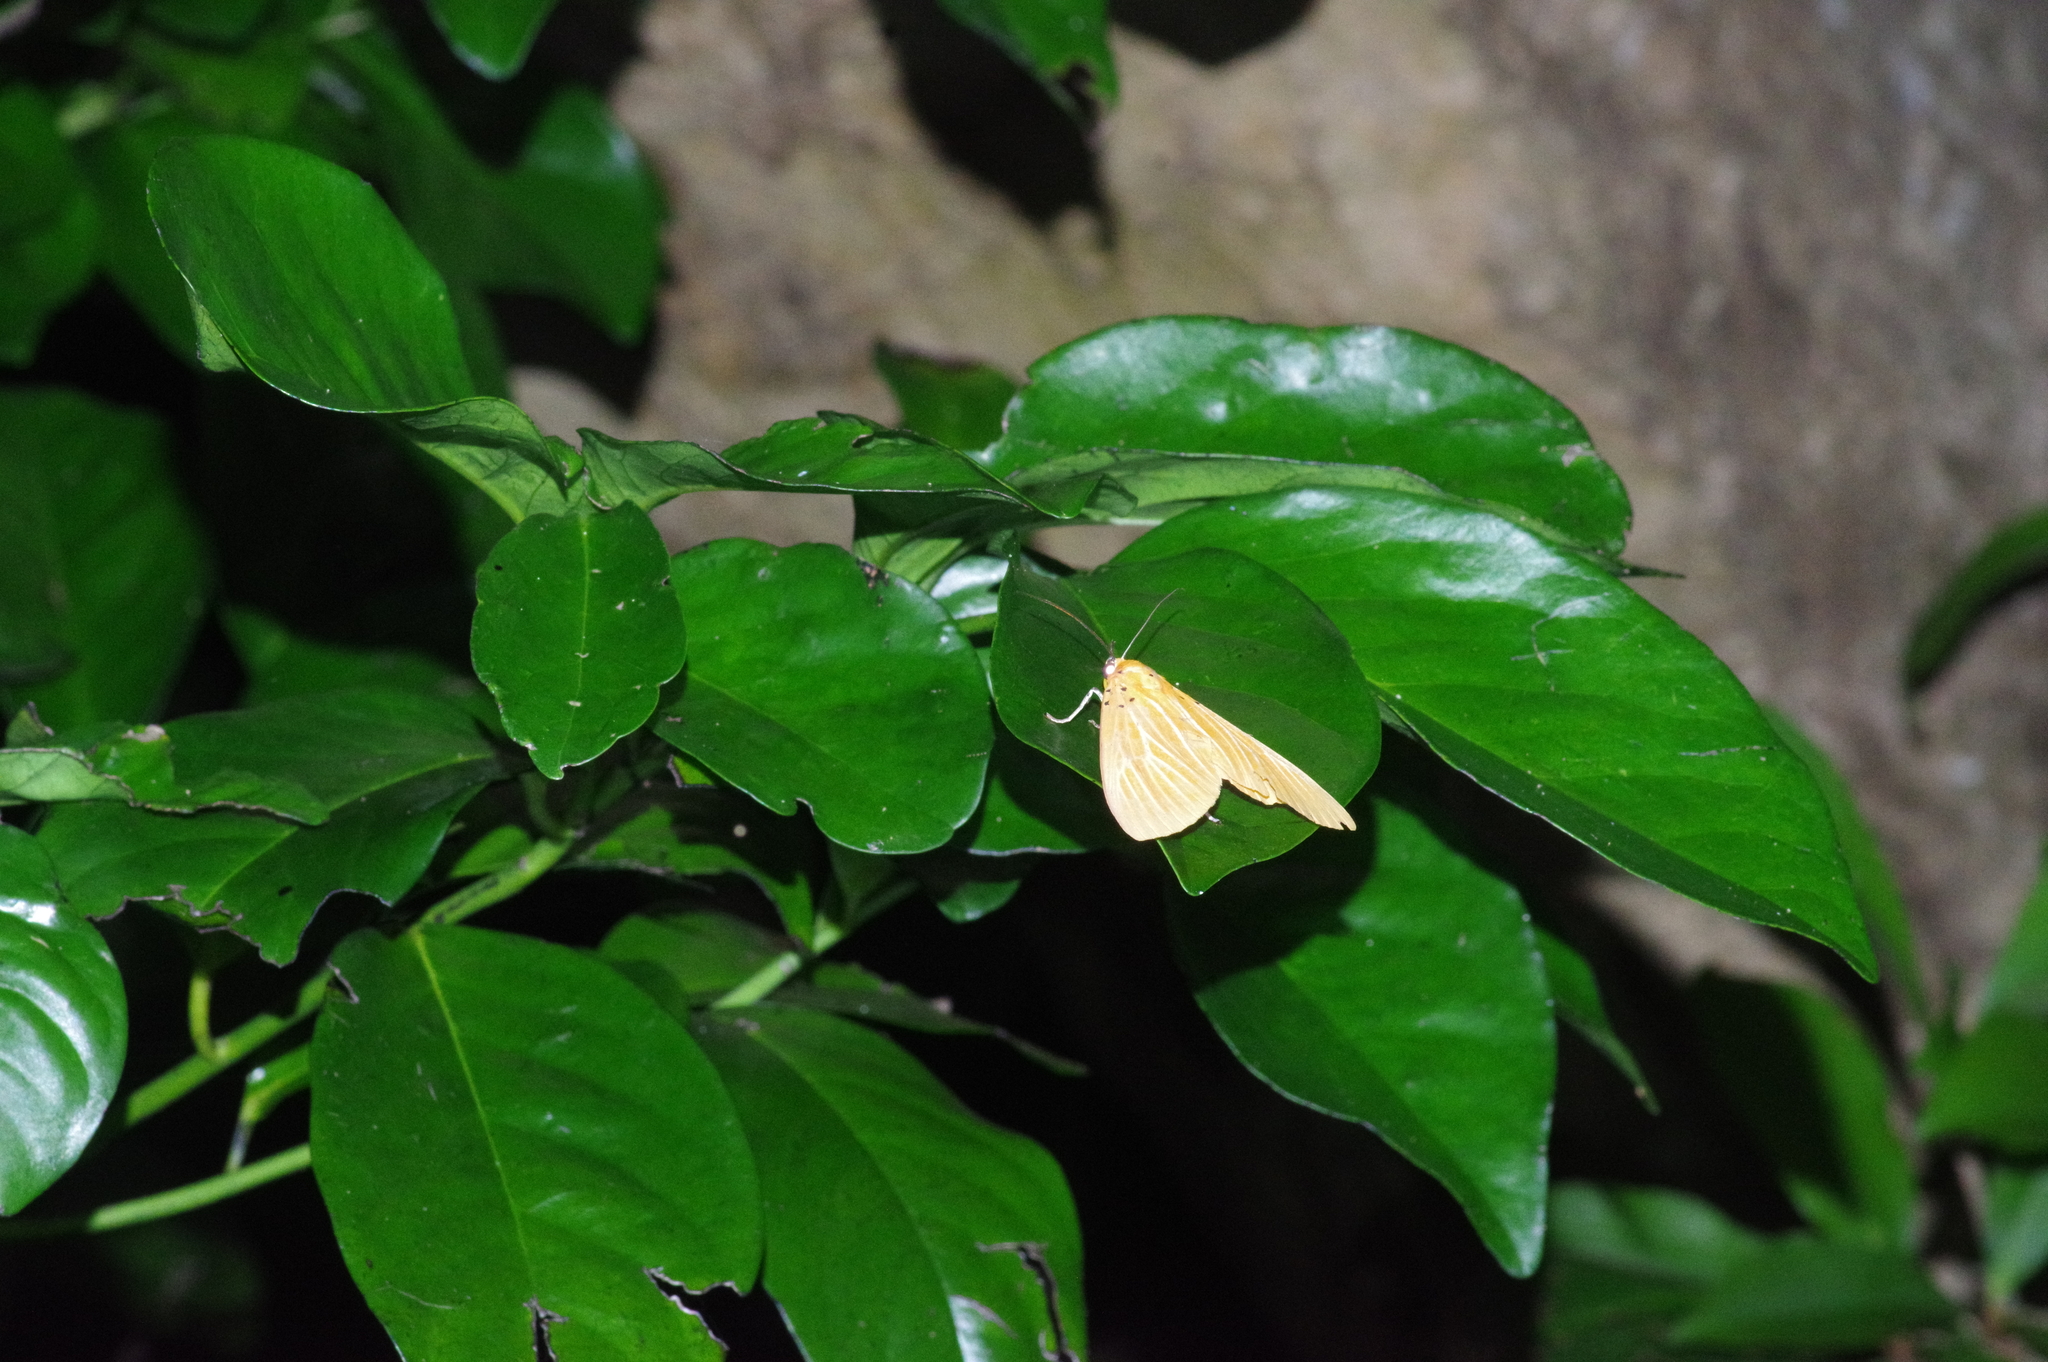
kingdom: Animalia
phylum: Arthropoda
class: Insecta
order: Lepidoptera
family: Erebidae
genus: Asota
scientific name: Asota egens
